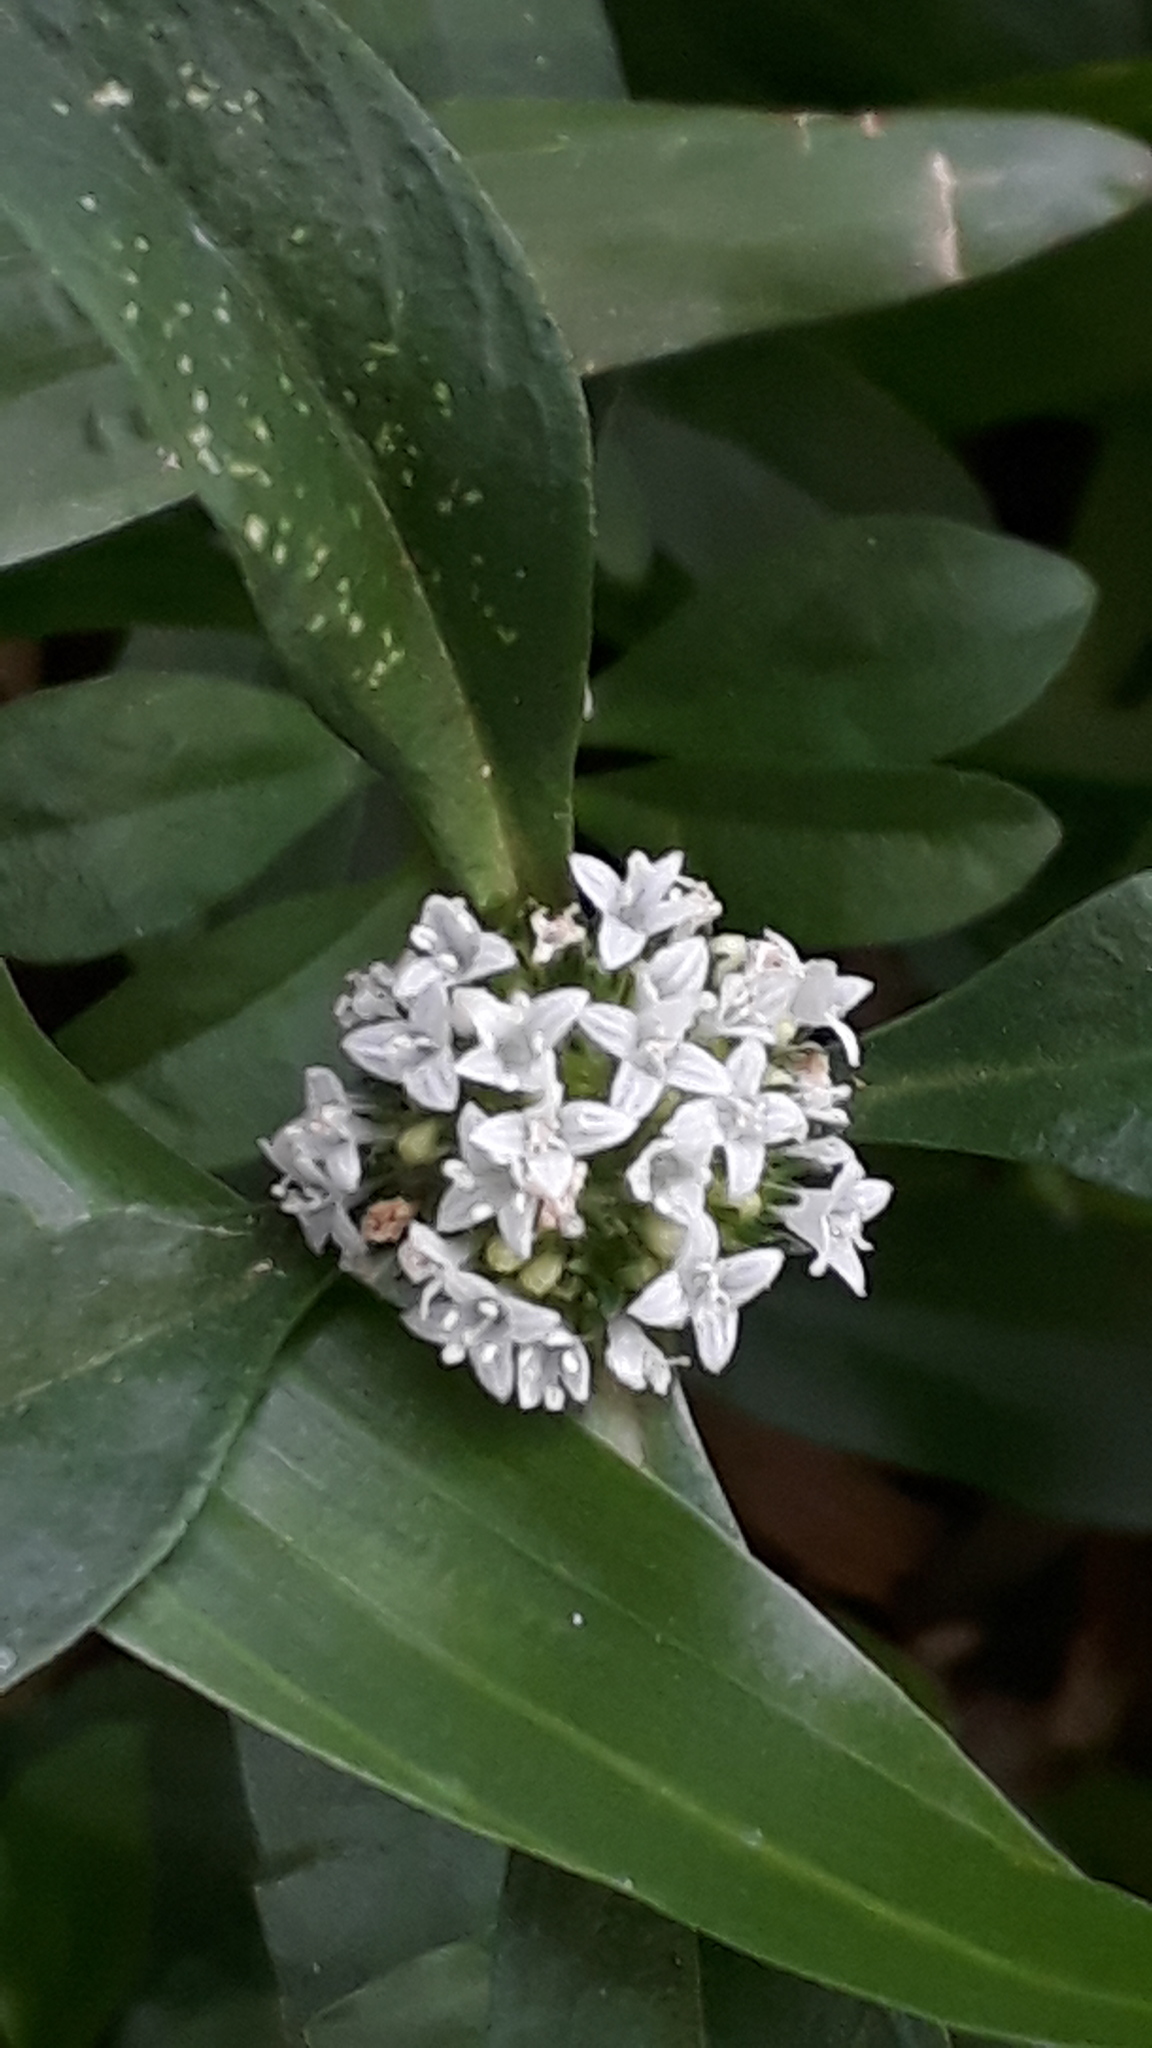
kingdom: Plantae
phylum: Tracheophyta
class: Magnoliopsida
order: Gentianales
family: Rubiaceae
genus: Spermacoce
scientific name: Spermacoce dasycephala
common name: False buttonweed
